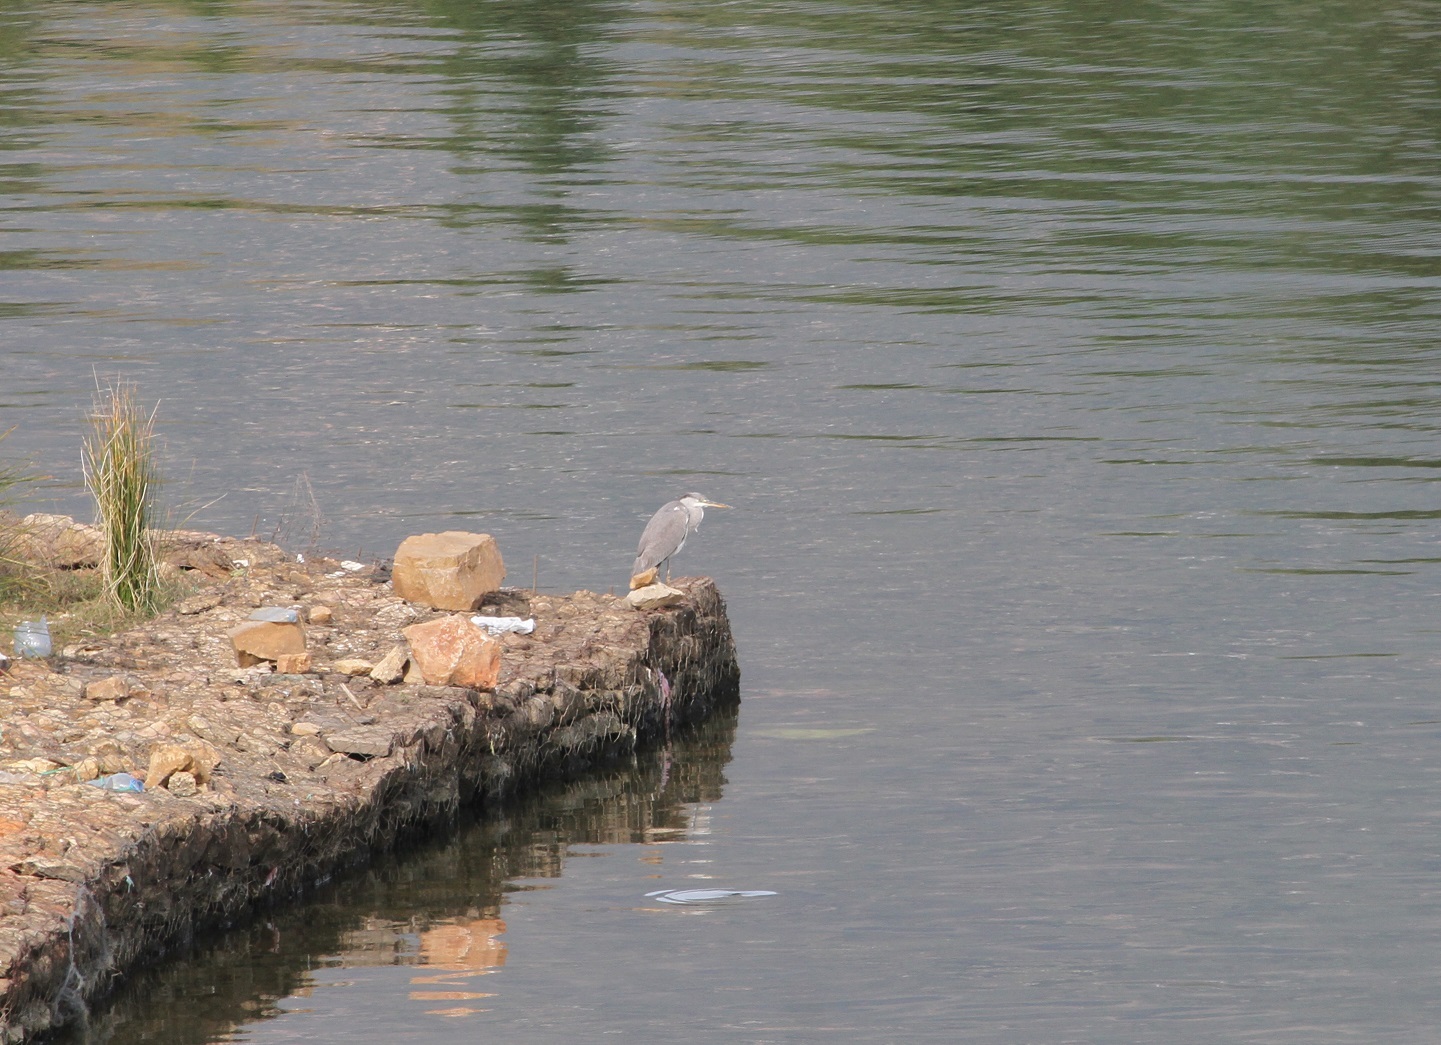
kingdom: Animalia
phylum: Chordata
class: Aves
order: Pelecaniformes
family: Ardeidae
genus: Ardea
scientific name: Ardea cinerea
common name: Grey heron
